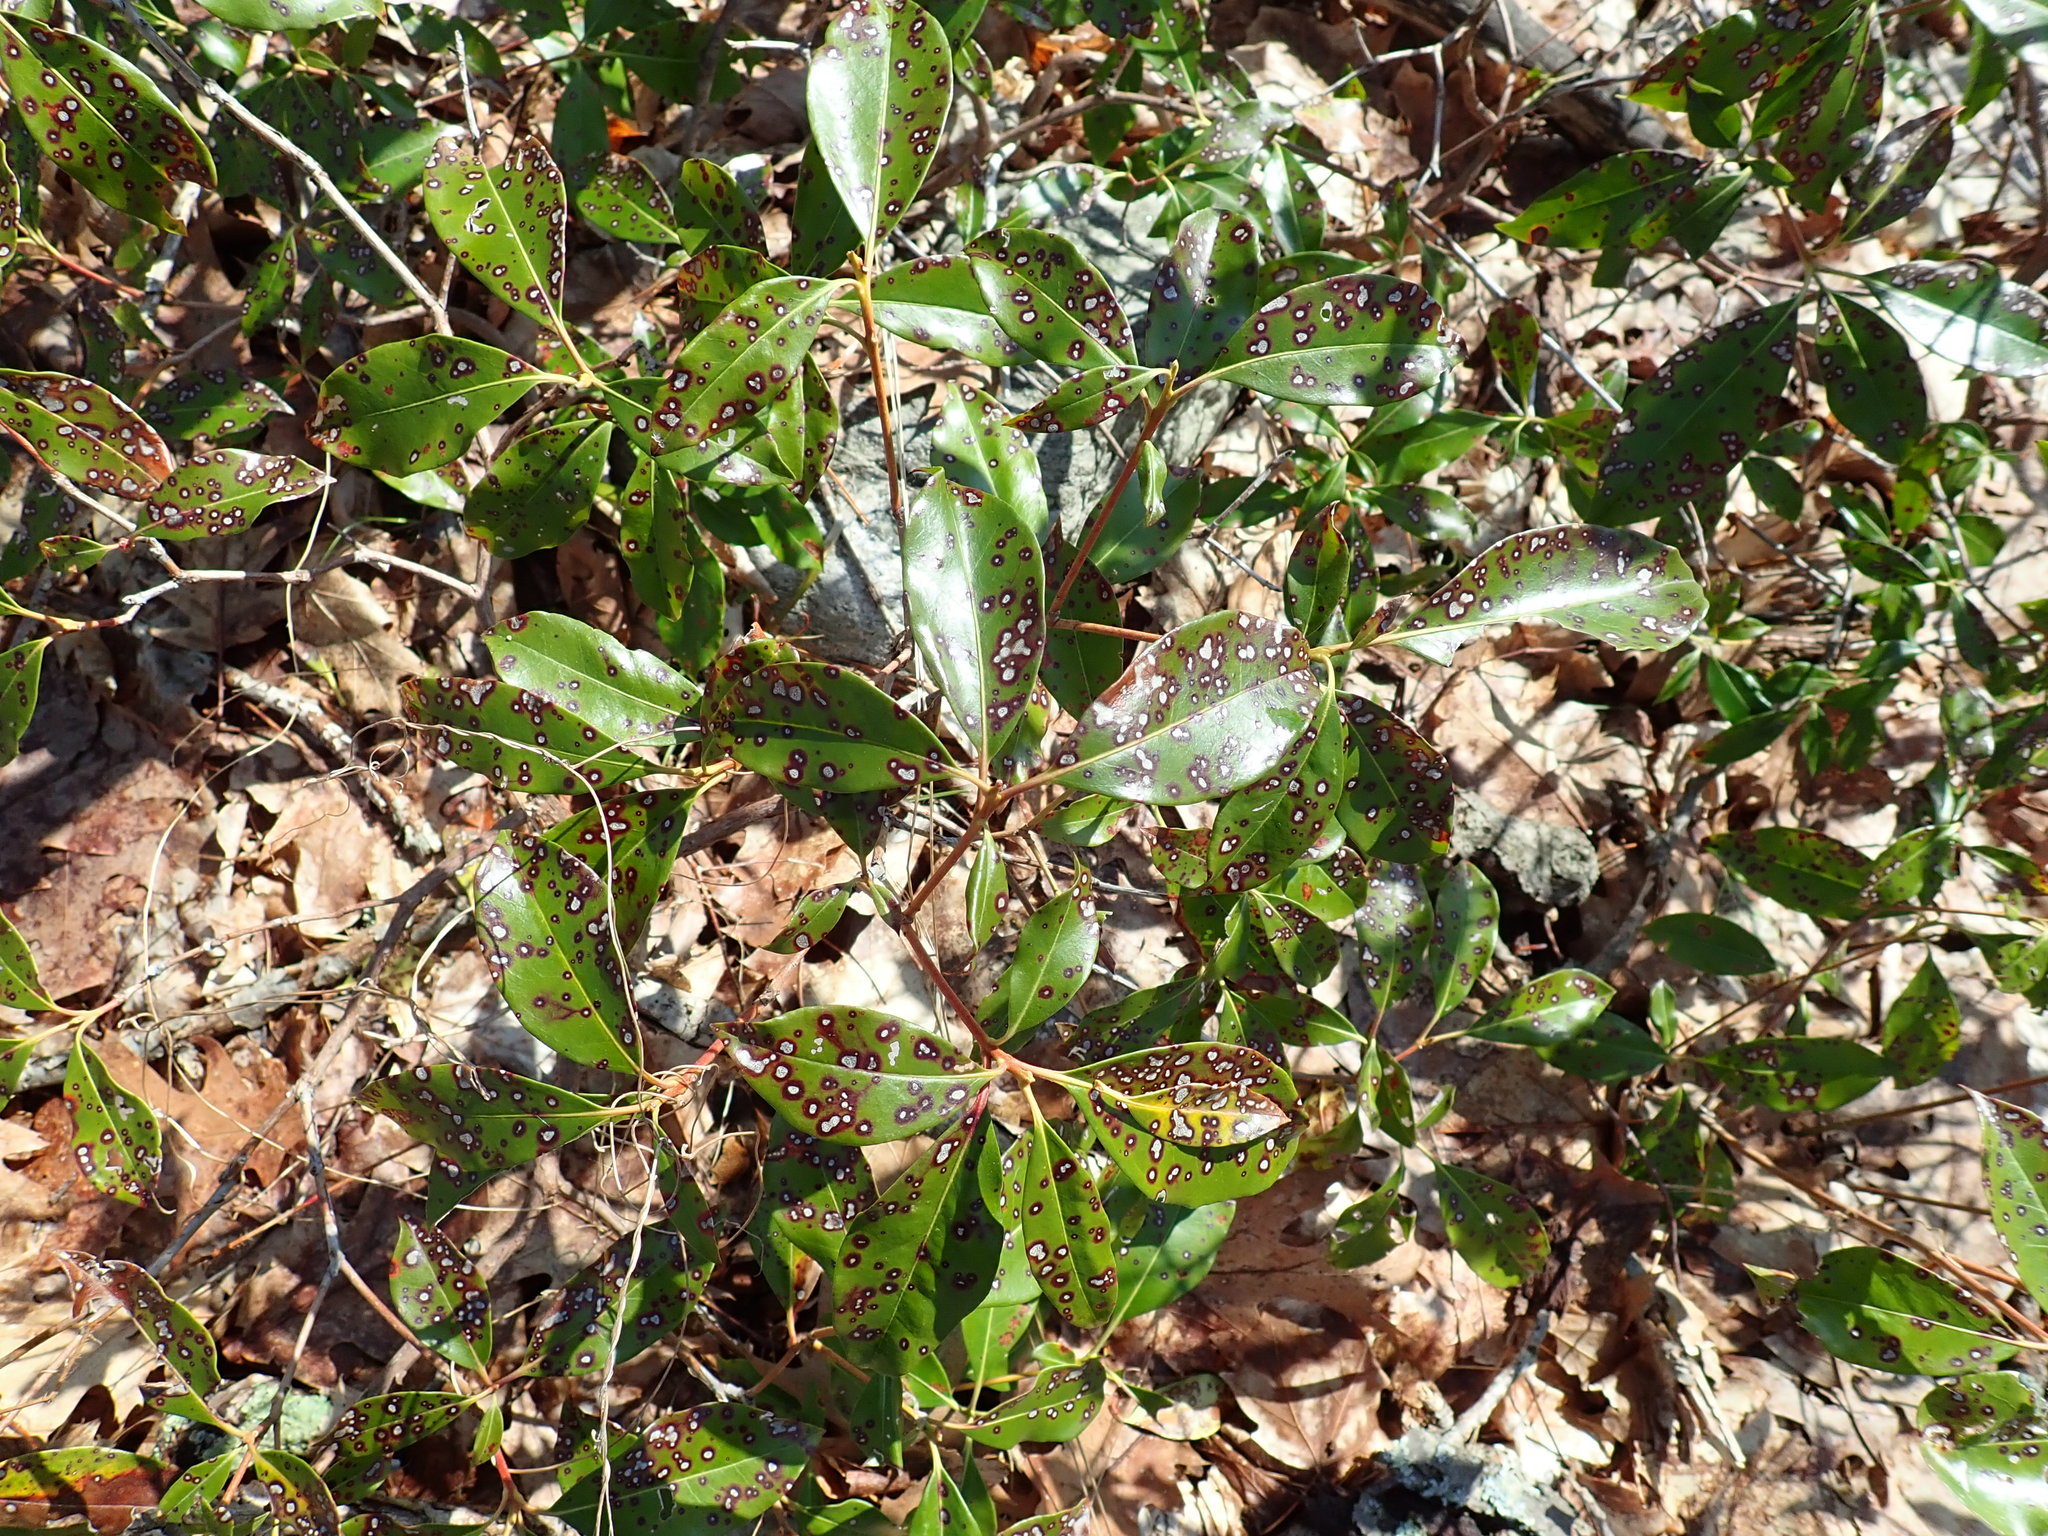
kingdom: Plantae
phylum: Tracheophyta
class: Magnoliopsida
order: Ericales
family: Ericaceae
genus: Kalmia
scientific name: Kalmia latifolia
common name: Mountain-laurel
